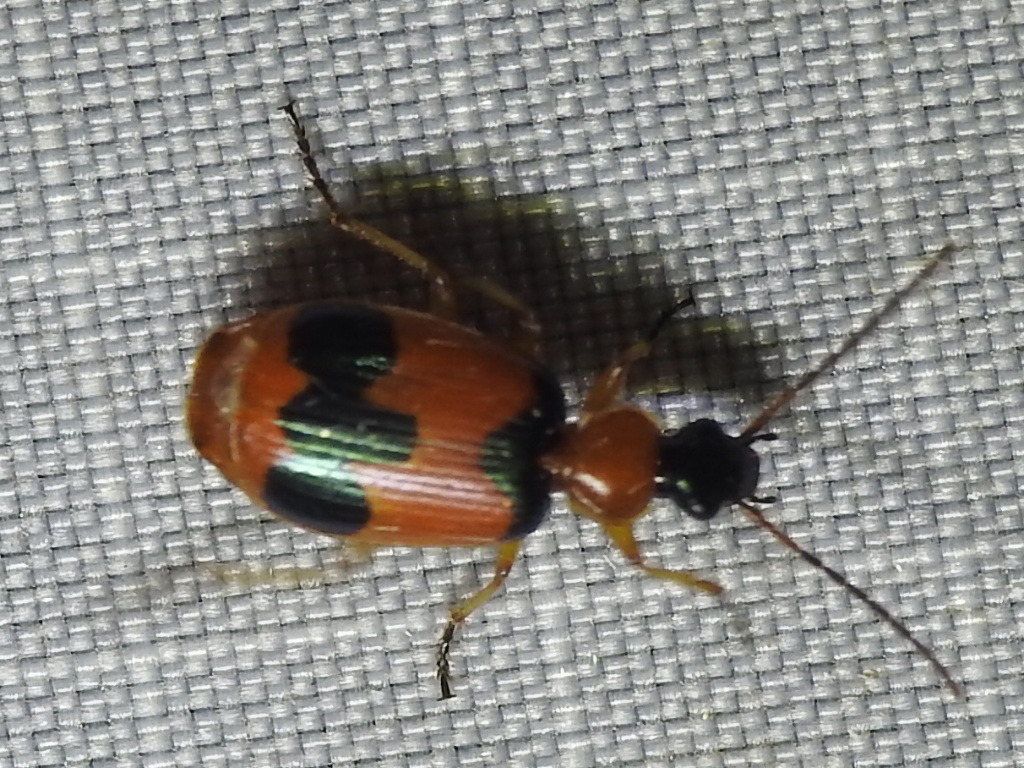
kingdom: Animalia
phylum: Arthropoda
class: Insecta
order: Coleoptera
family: Carabidae
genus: Lebia
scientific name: Lebia pulchella
